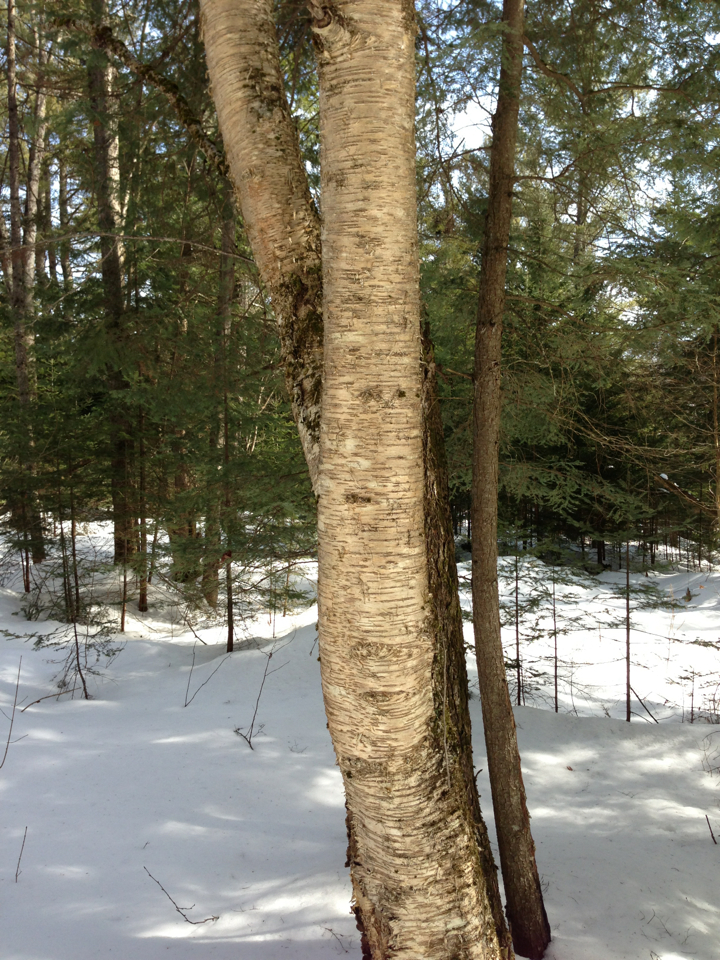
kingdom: Plantae
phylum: Tracheophyta
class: Magnoliopsida
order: Fagales
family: Betulaceae
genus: Betula
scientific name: Betula alleghaniensis
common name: Yellow birch
